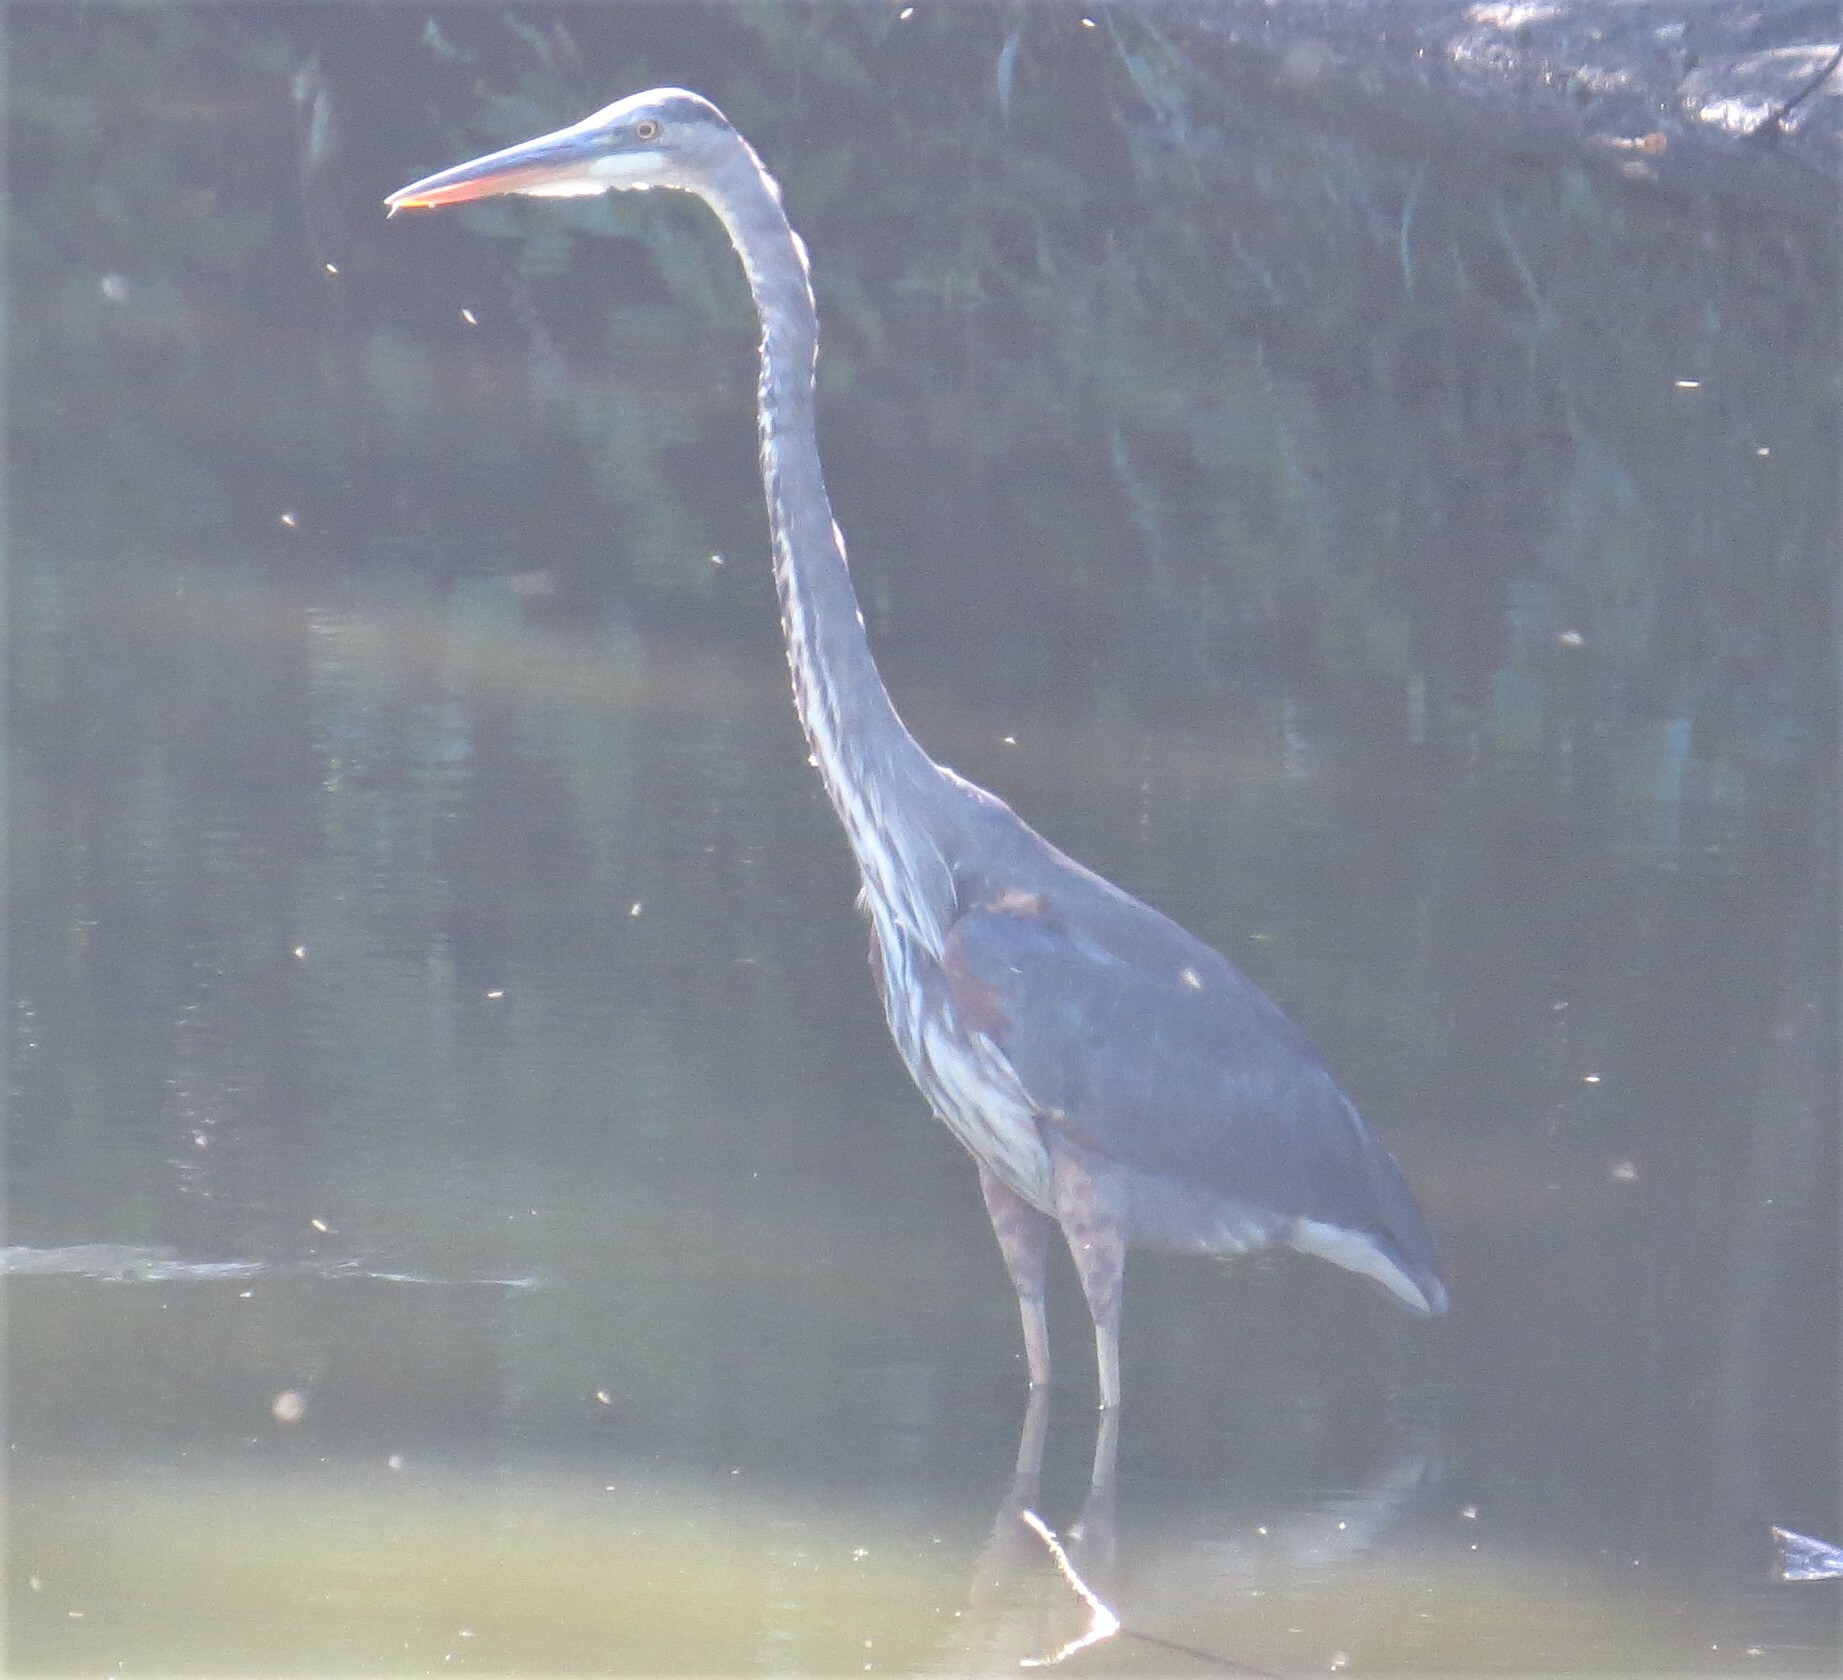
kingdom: Animalia
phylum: Chordata
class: Aves
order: Pelecaniformes
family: Ardeidae
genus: Ardea
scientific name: Ardea herodias
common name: Great blue heron
